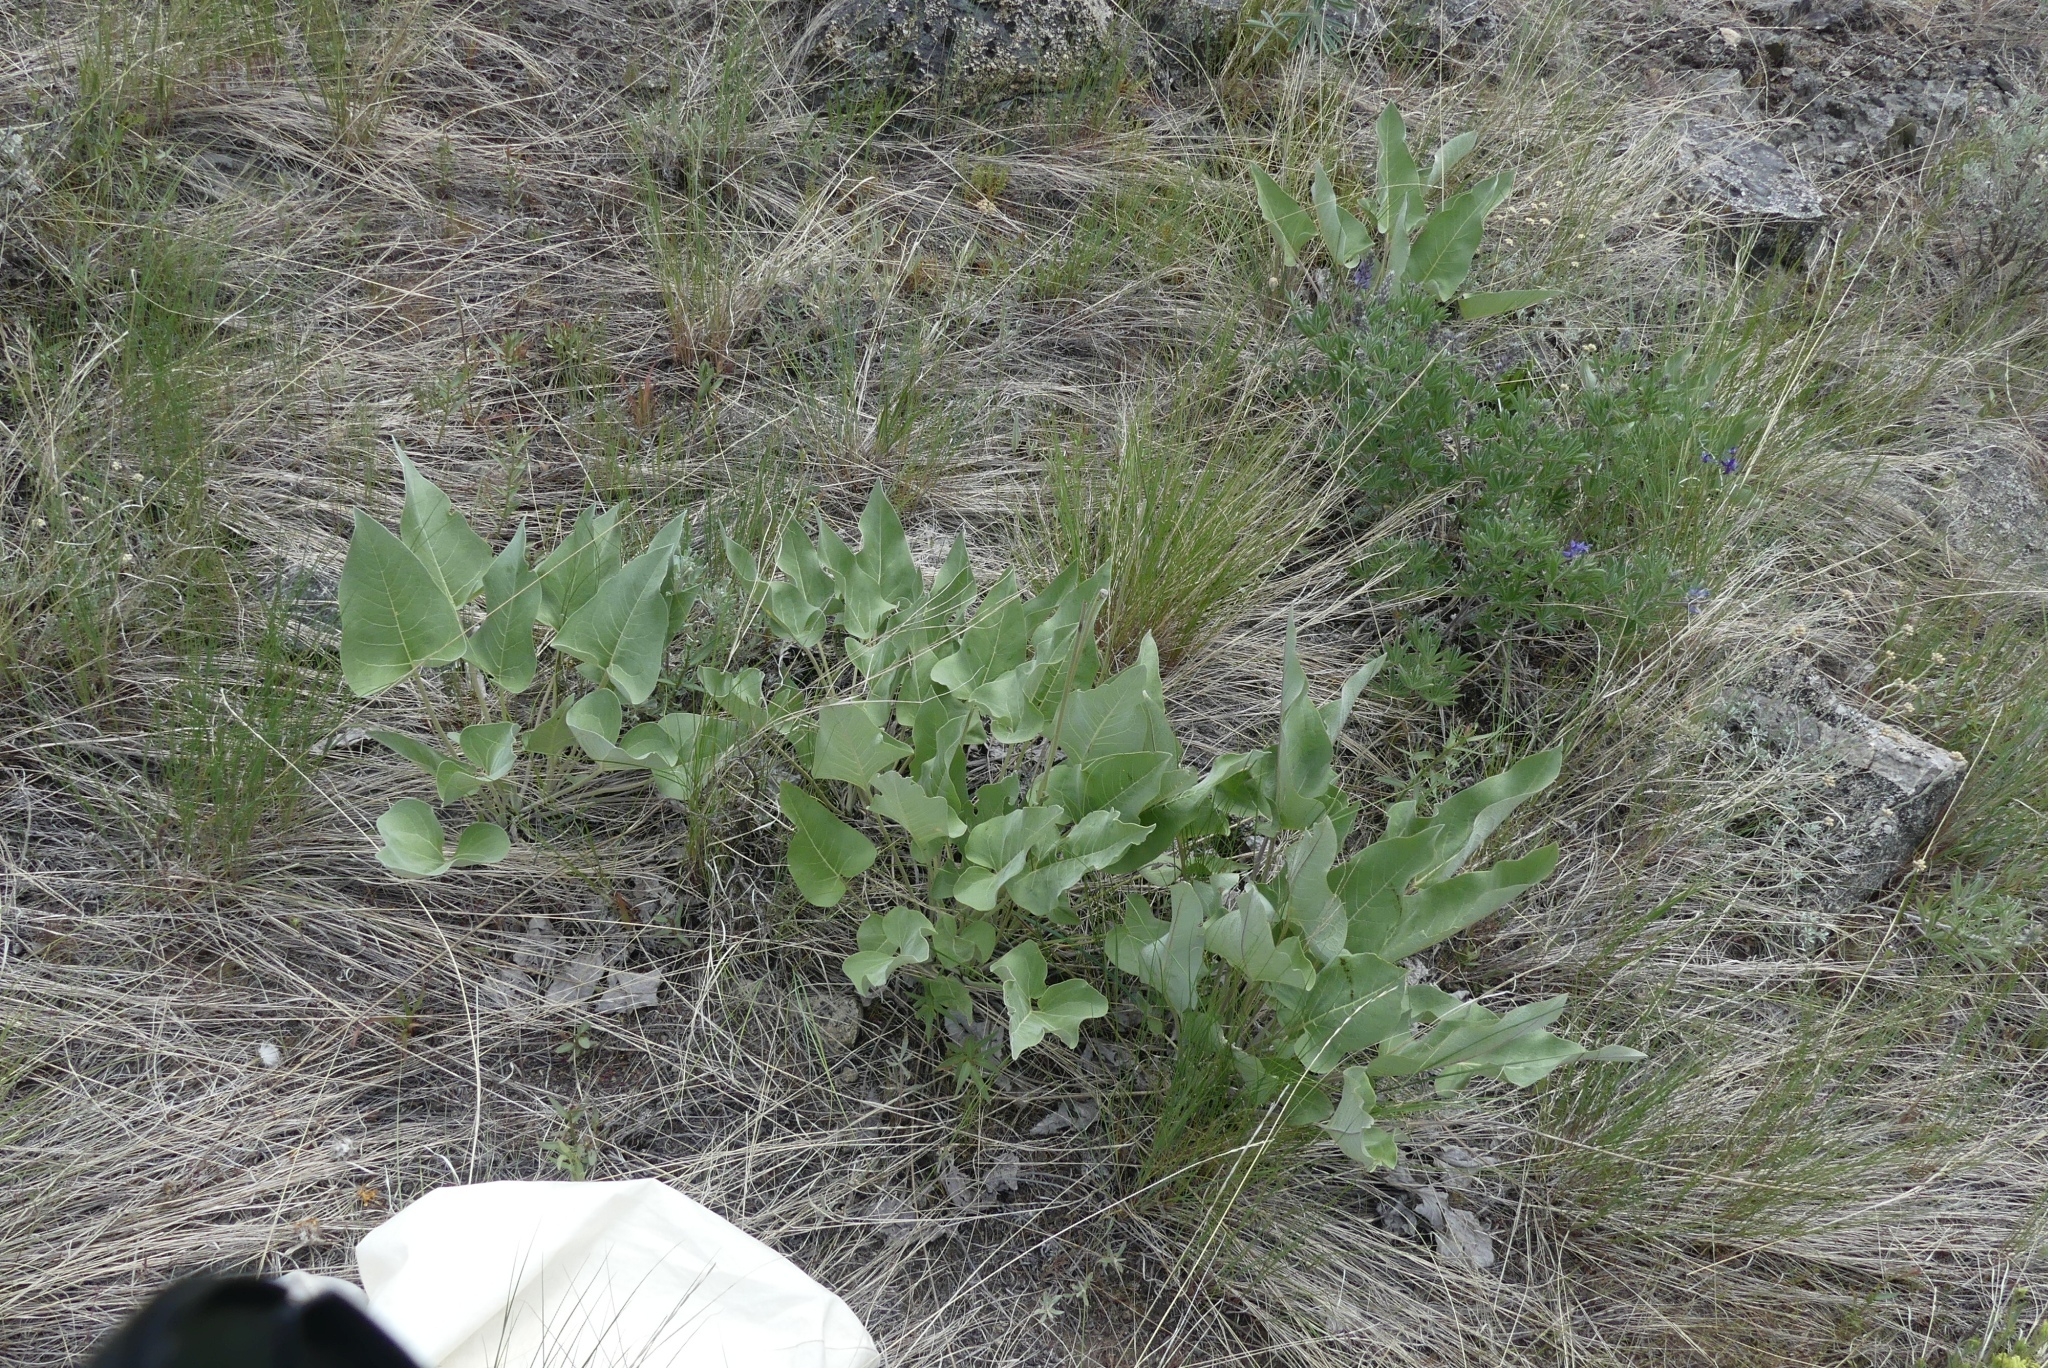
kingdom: Plantae
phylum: Tracheophyta
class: Magnoliopsida
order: Asterales
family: Asteraceae
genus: Wyethia
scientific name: Wyethia sagittata
